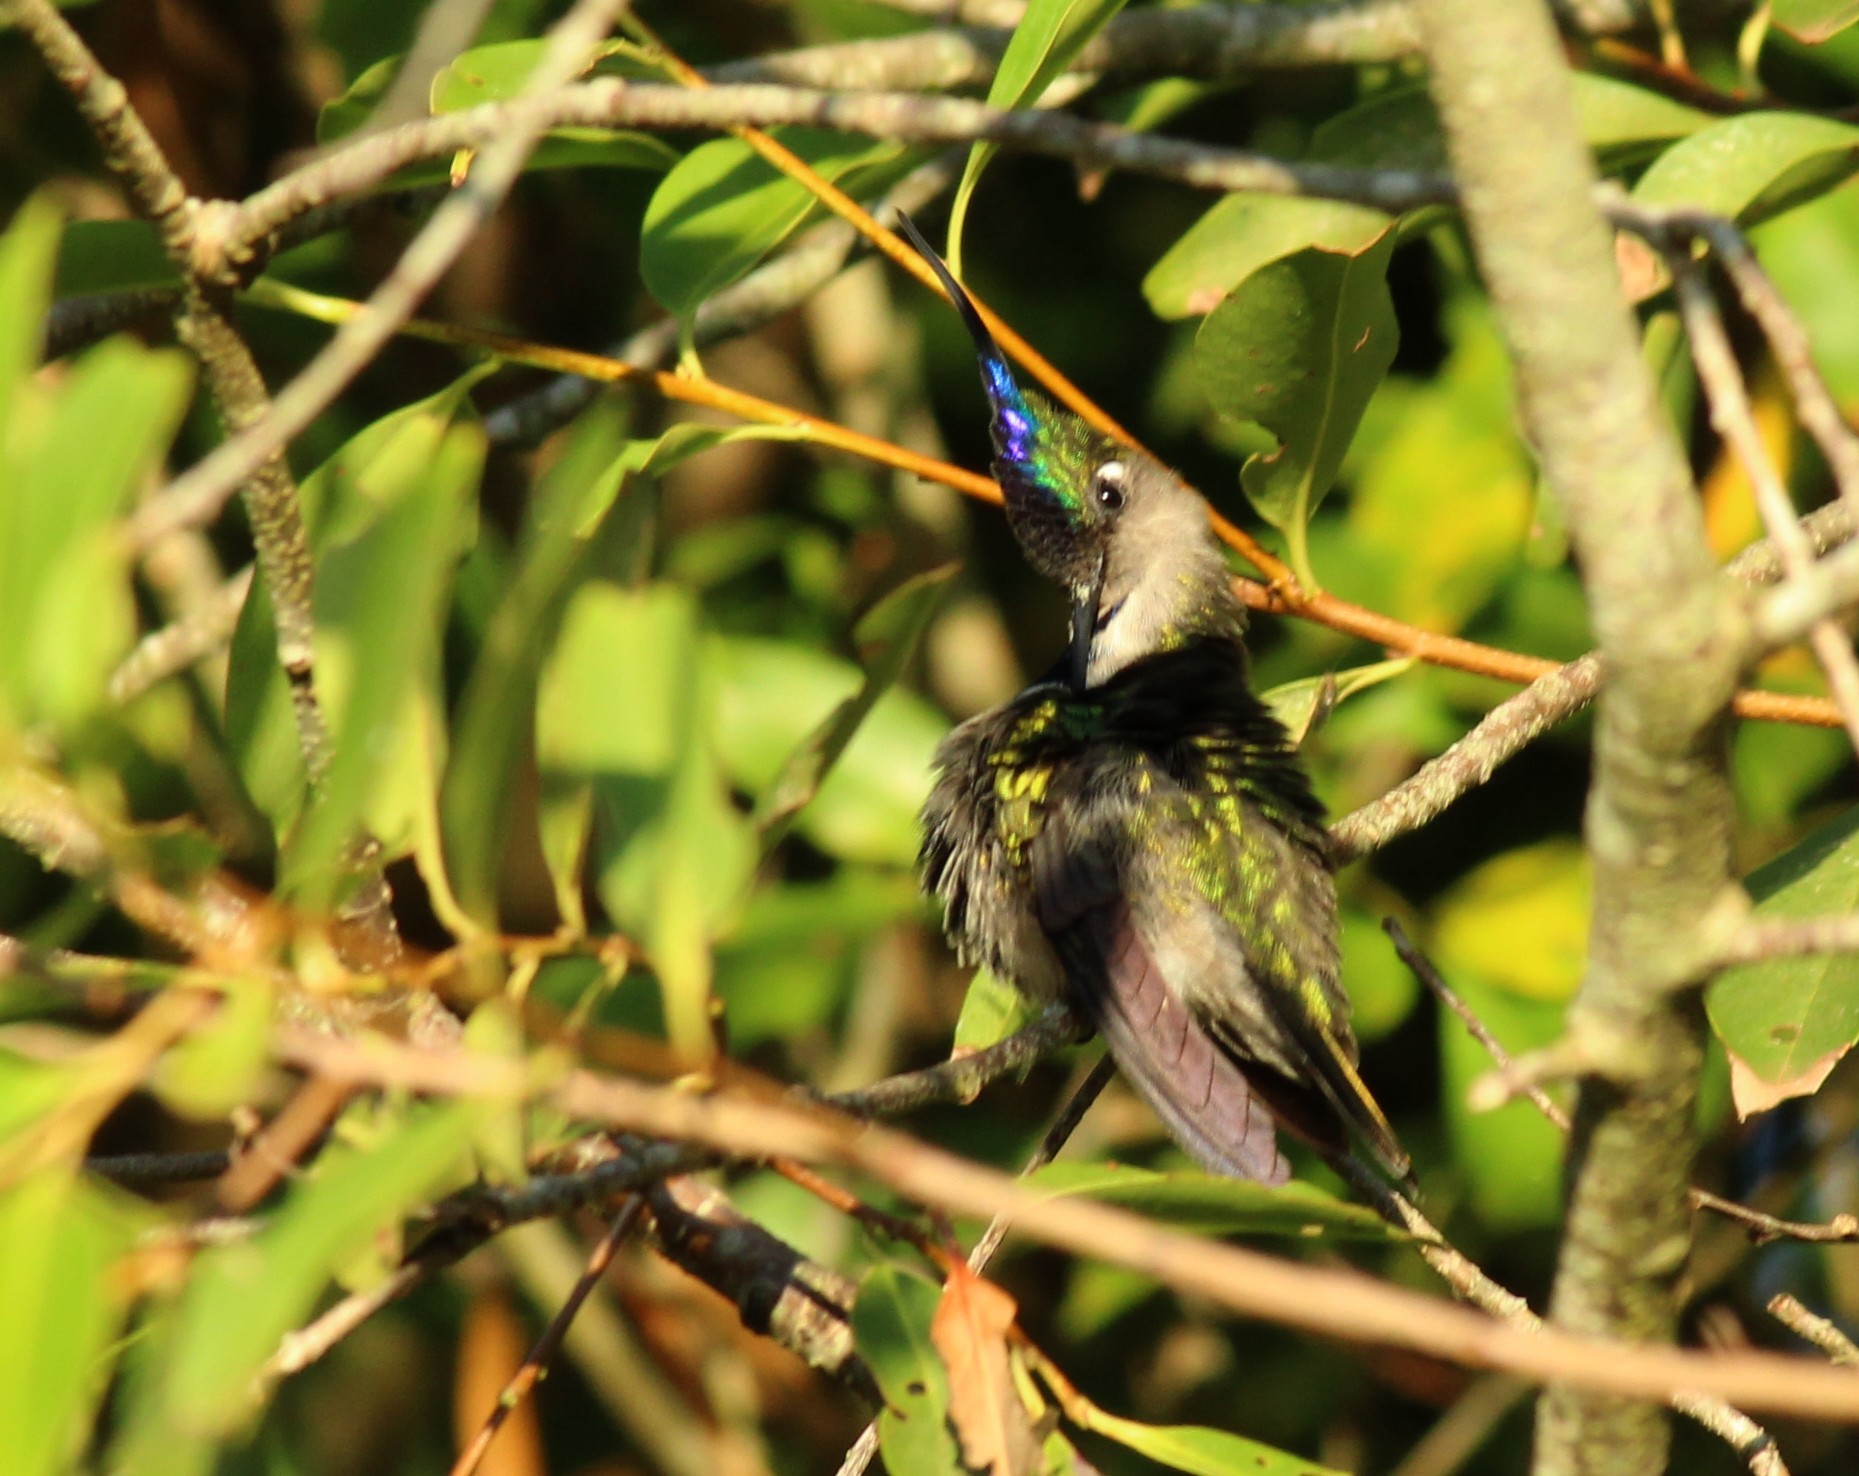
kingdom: Animalia
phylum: Chordata
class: Aves
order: Apodiformes
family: Trochilidae
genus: Stephanoxis
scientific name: Stephanoxis loddigesii
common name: Purple-crowned plovercrest
